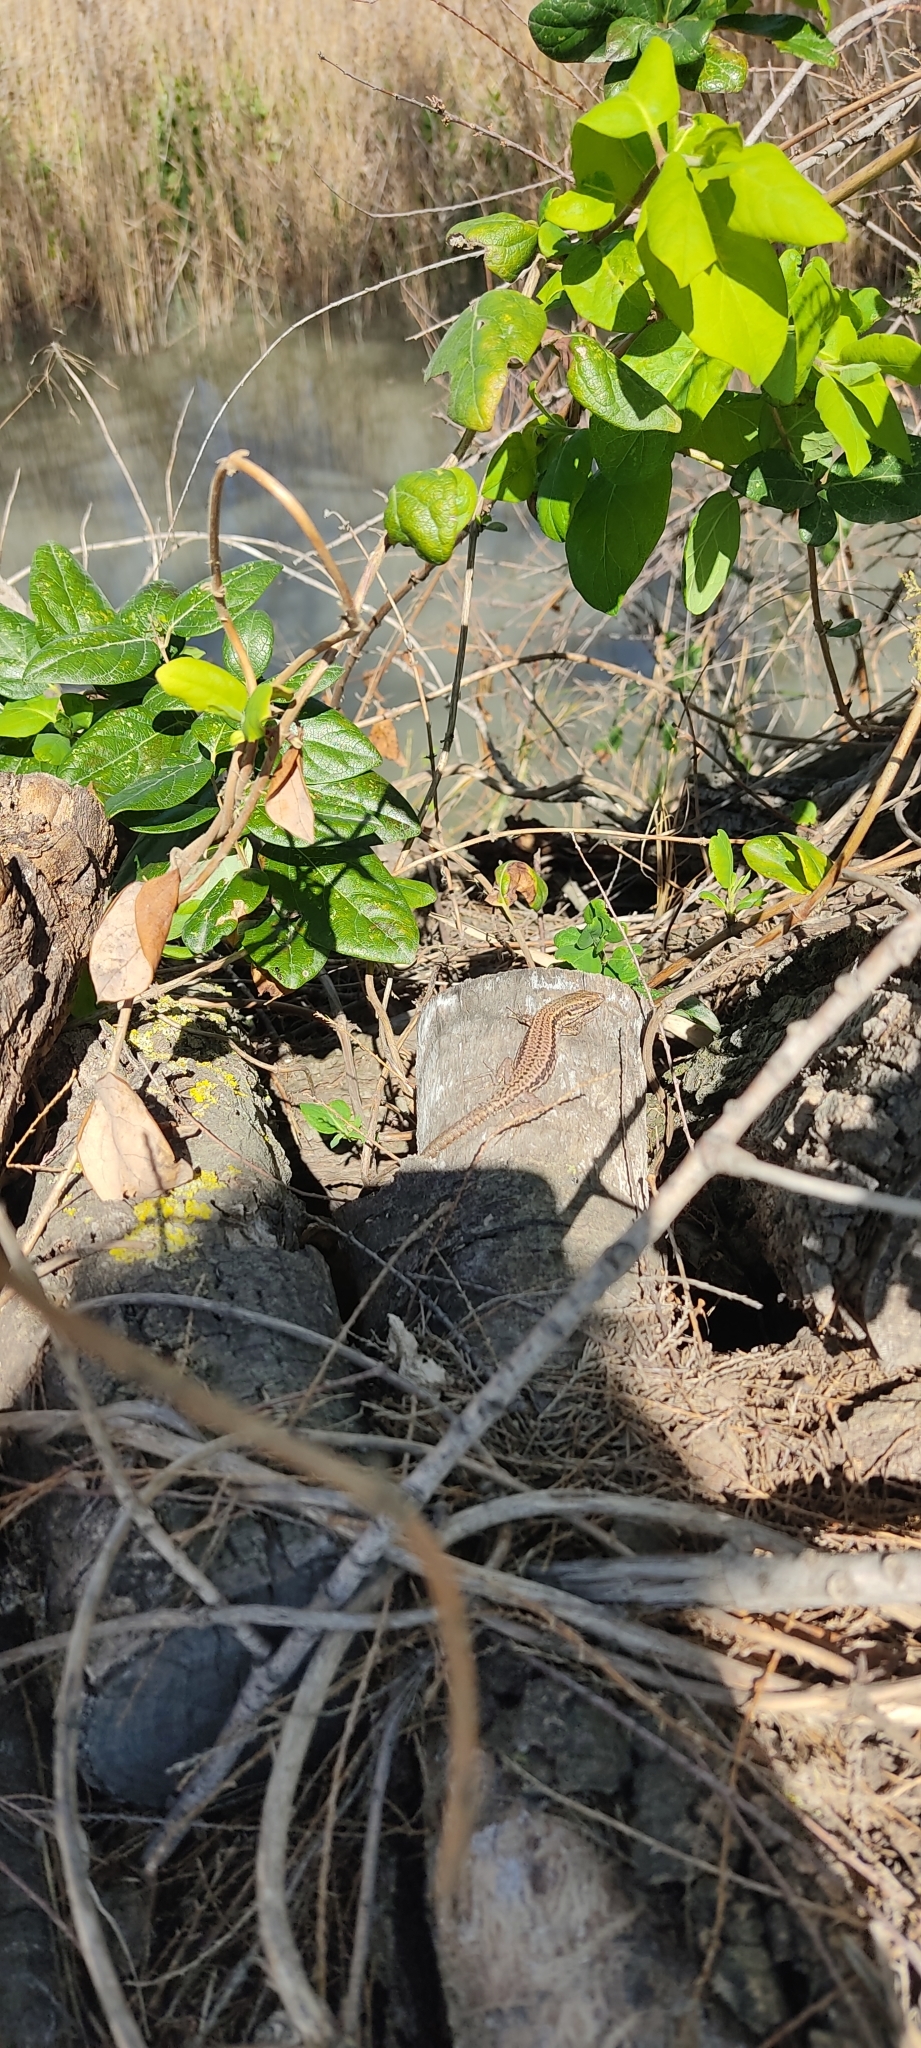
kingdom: Animalia
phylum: Chordata
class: Squamata
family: Lacertidae
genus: Podarcis
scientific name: Podarcis muralis
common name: Common wall lizard
